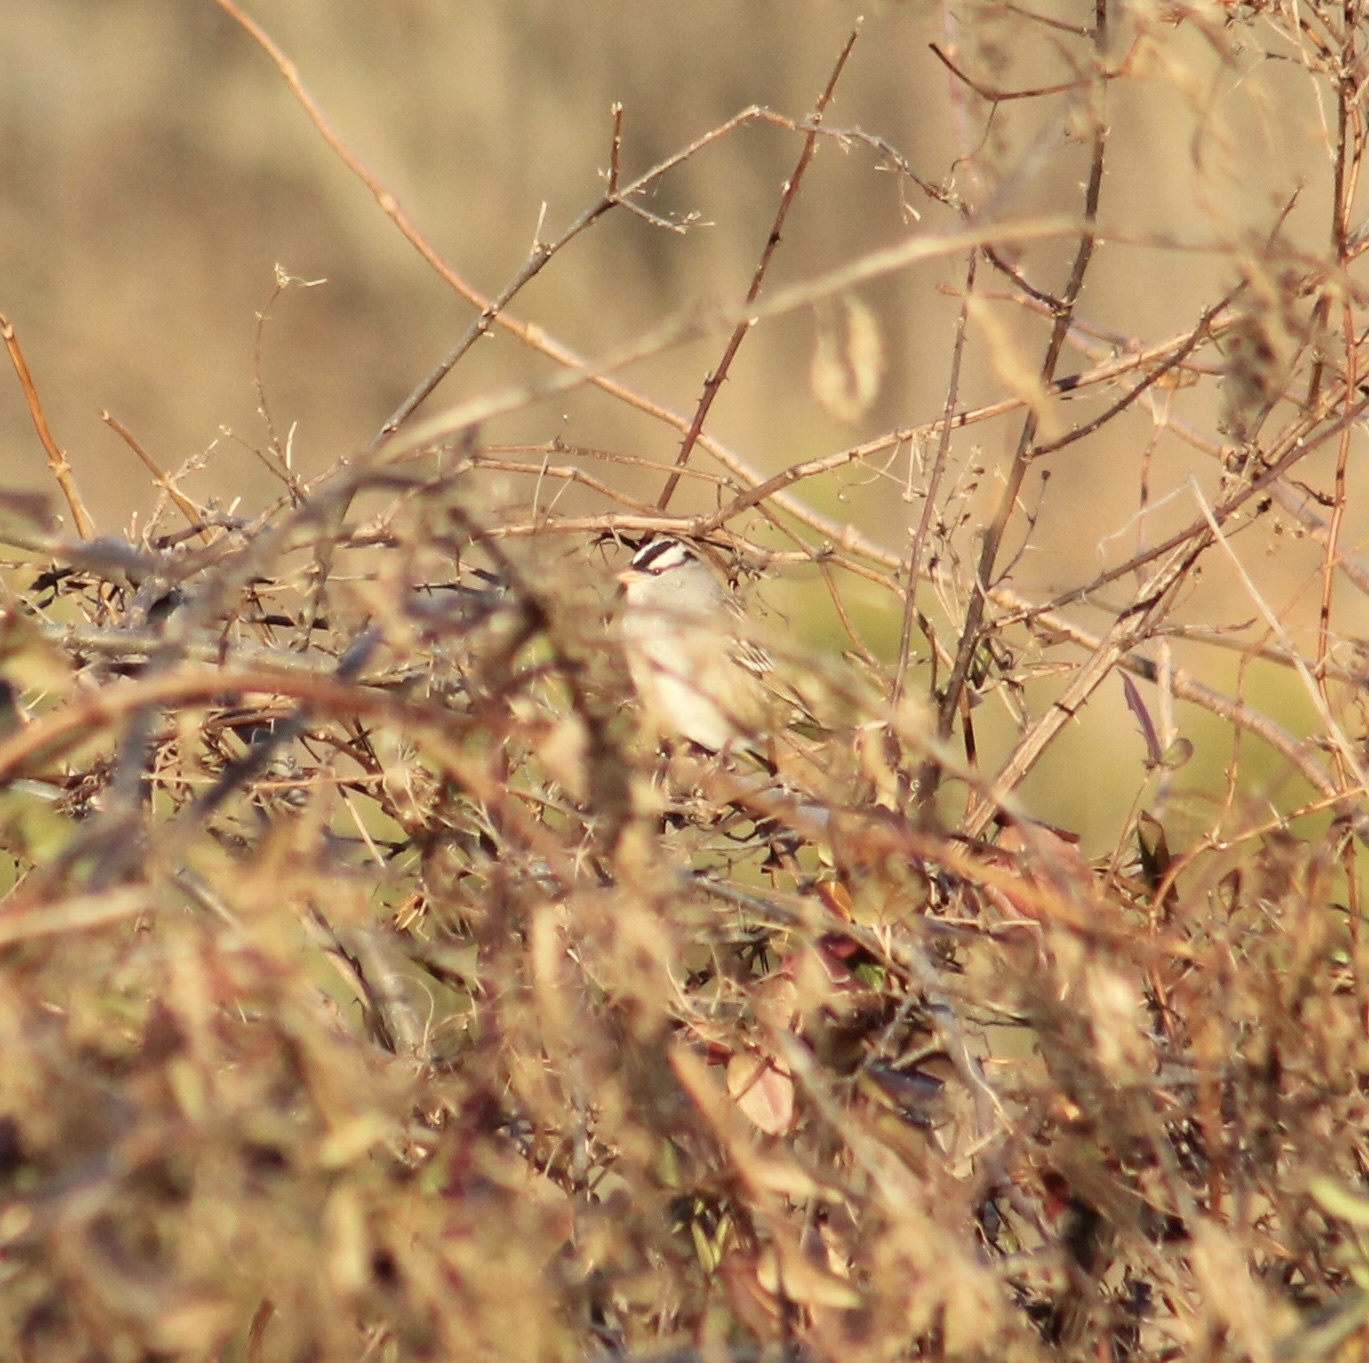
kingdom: Animalia
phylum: Chordata
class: Aves
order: Passeriformes
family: Passerellidae
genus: Zonotrichia
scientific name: Zonotrichia leucophrys
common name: White-crowned sparrow
